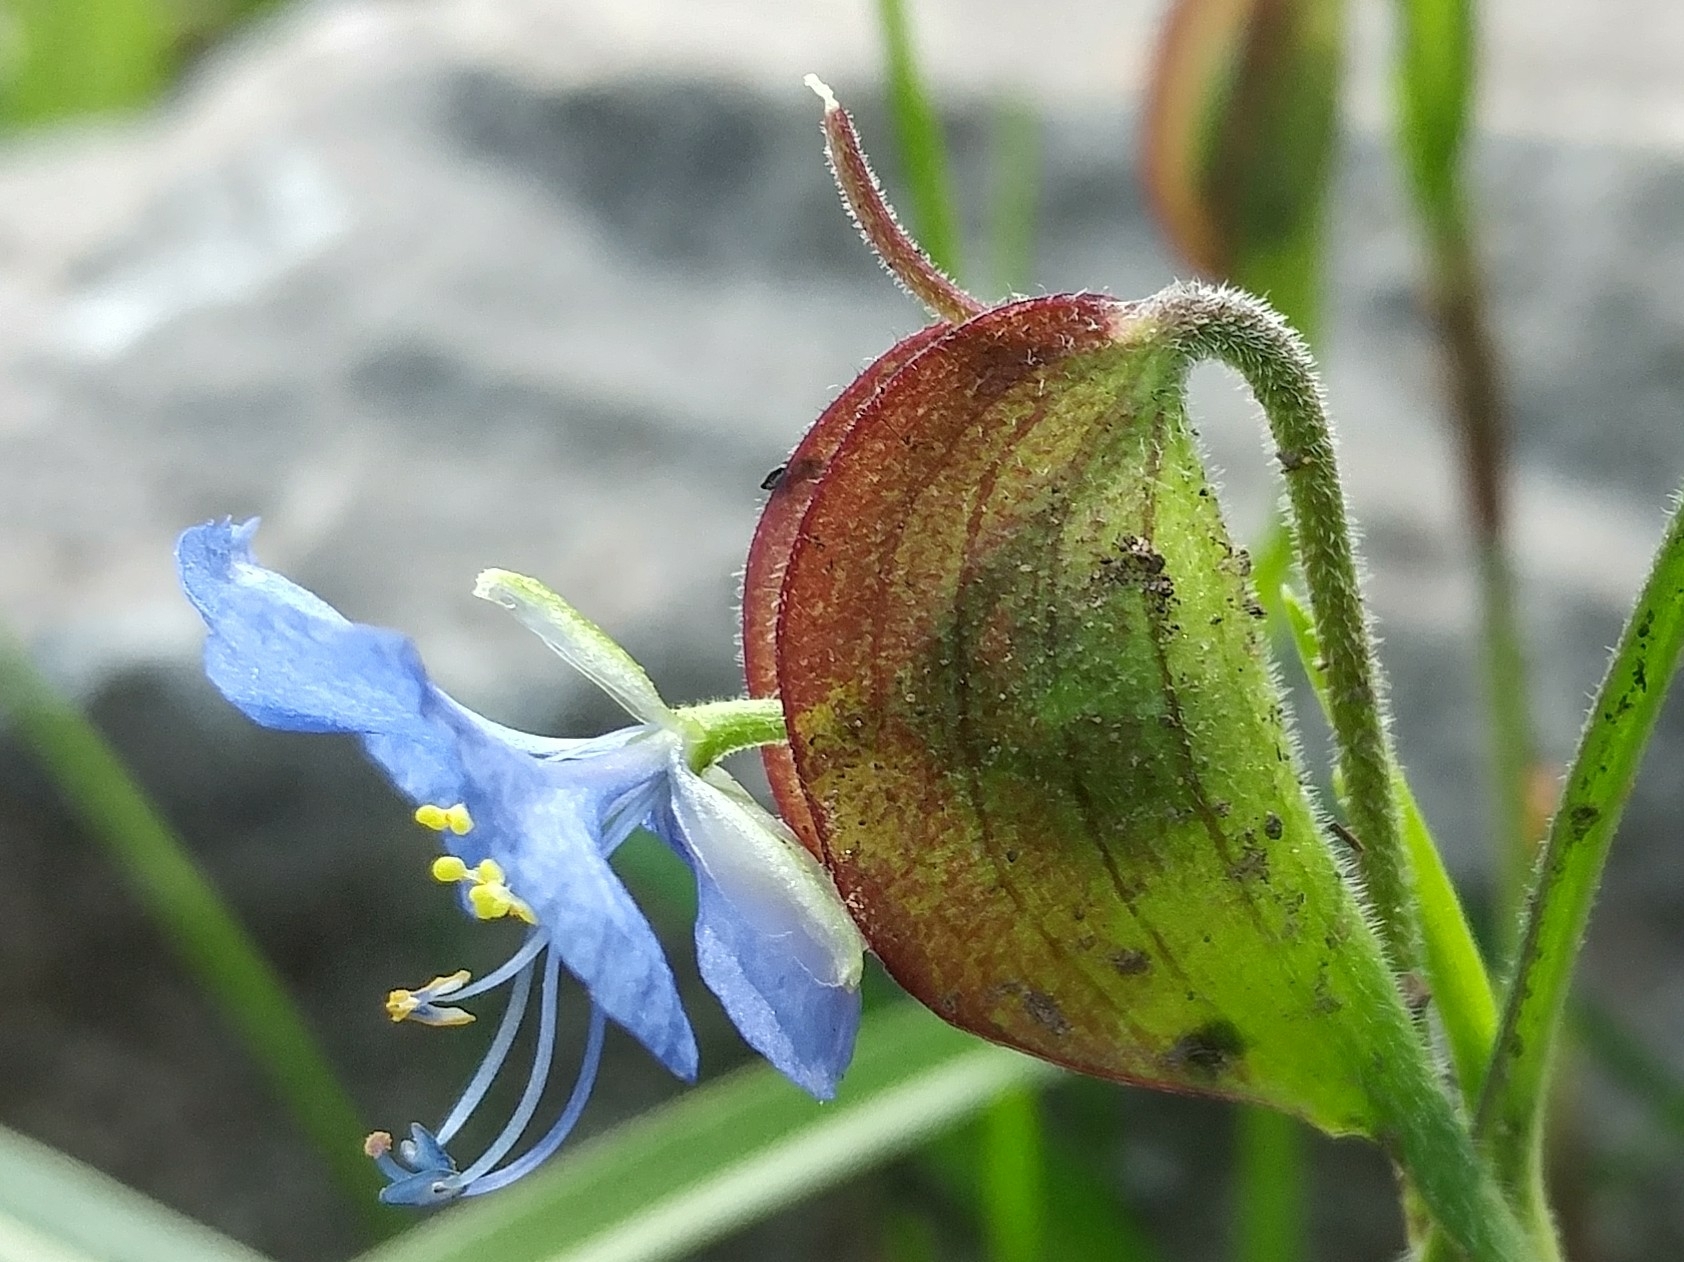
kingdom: Plantae
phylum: Tracheophyta
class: Liliopsida
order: Commelinales
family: Commelinaceae
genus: Commelina
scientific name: Commelina dianthifolia
